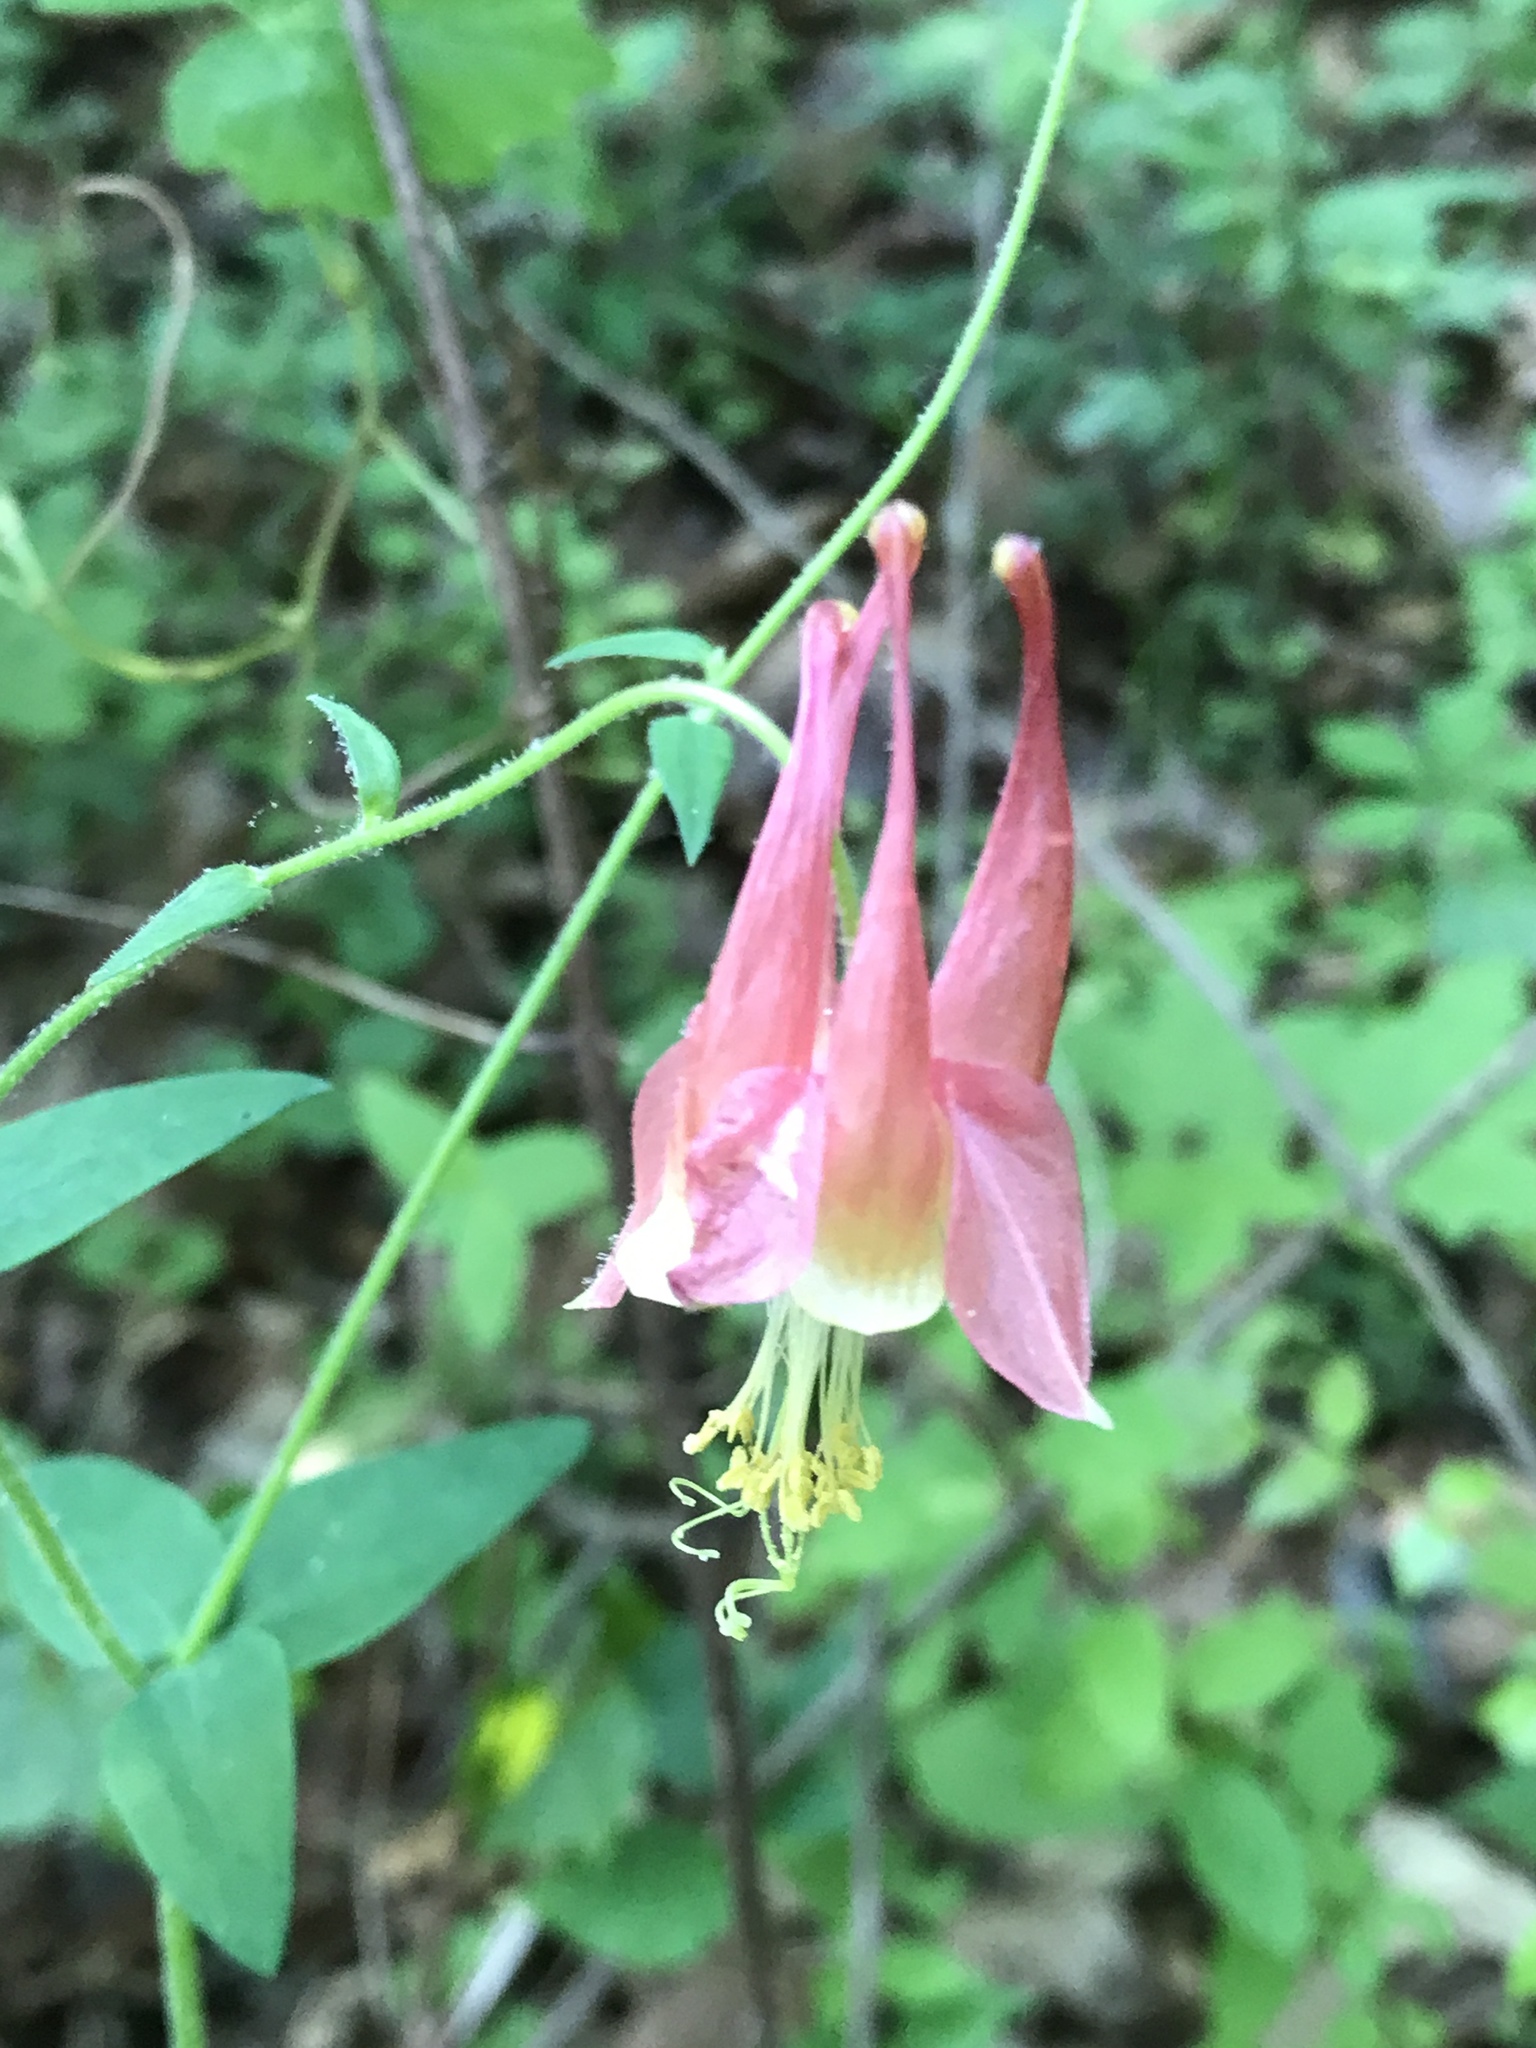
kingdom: Plantae
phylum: Tracheophyta
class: Magnoliopsida
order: Ranunculales
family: Ranunculaceae
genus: Aquilegia
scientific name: Aquilegia canadensis
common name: American columbine
